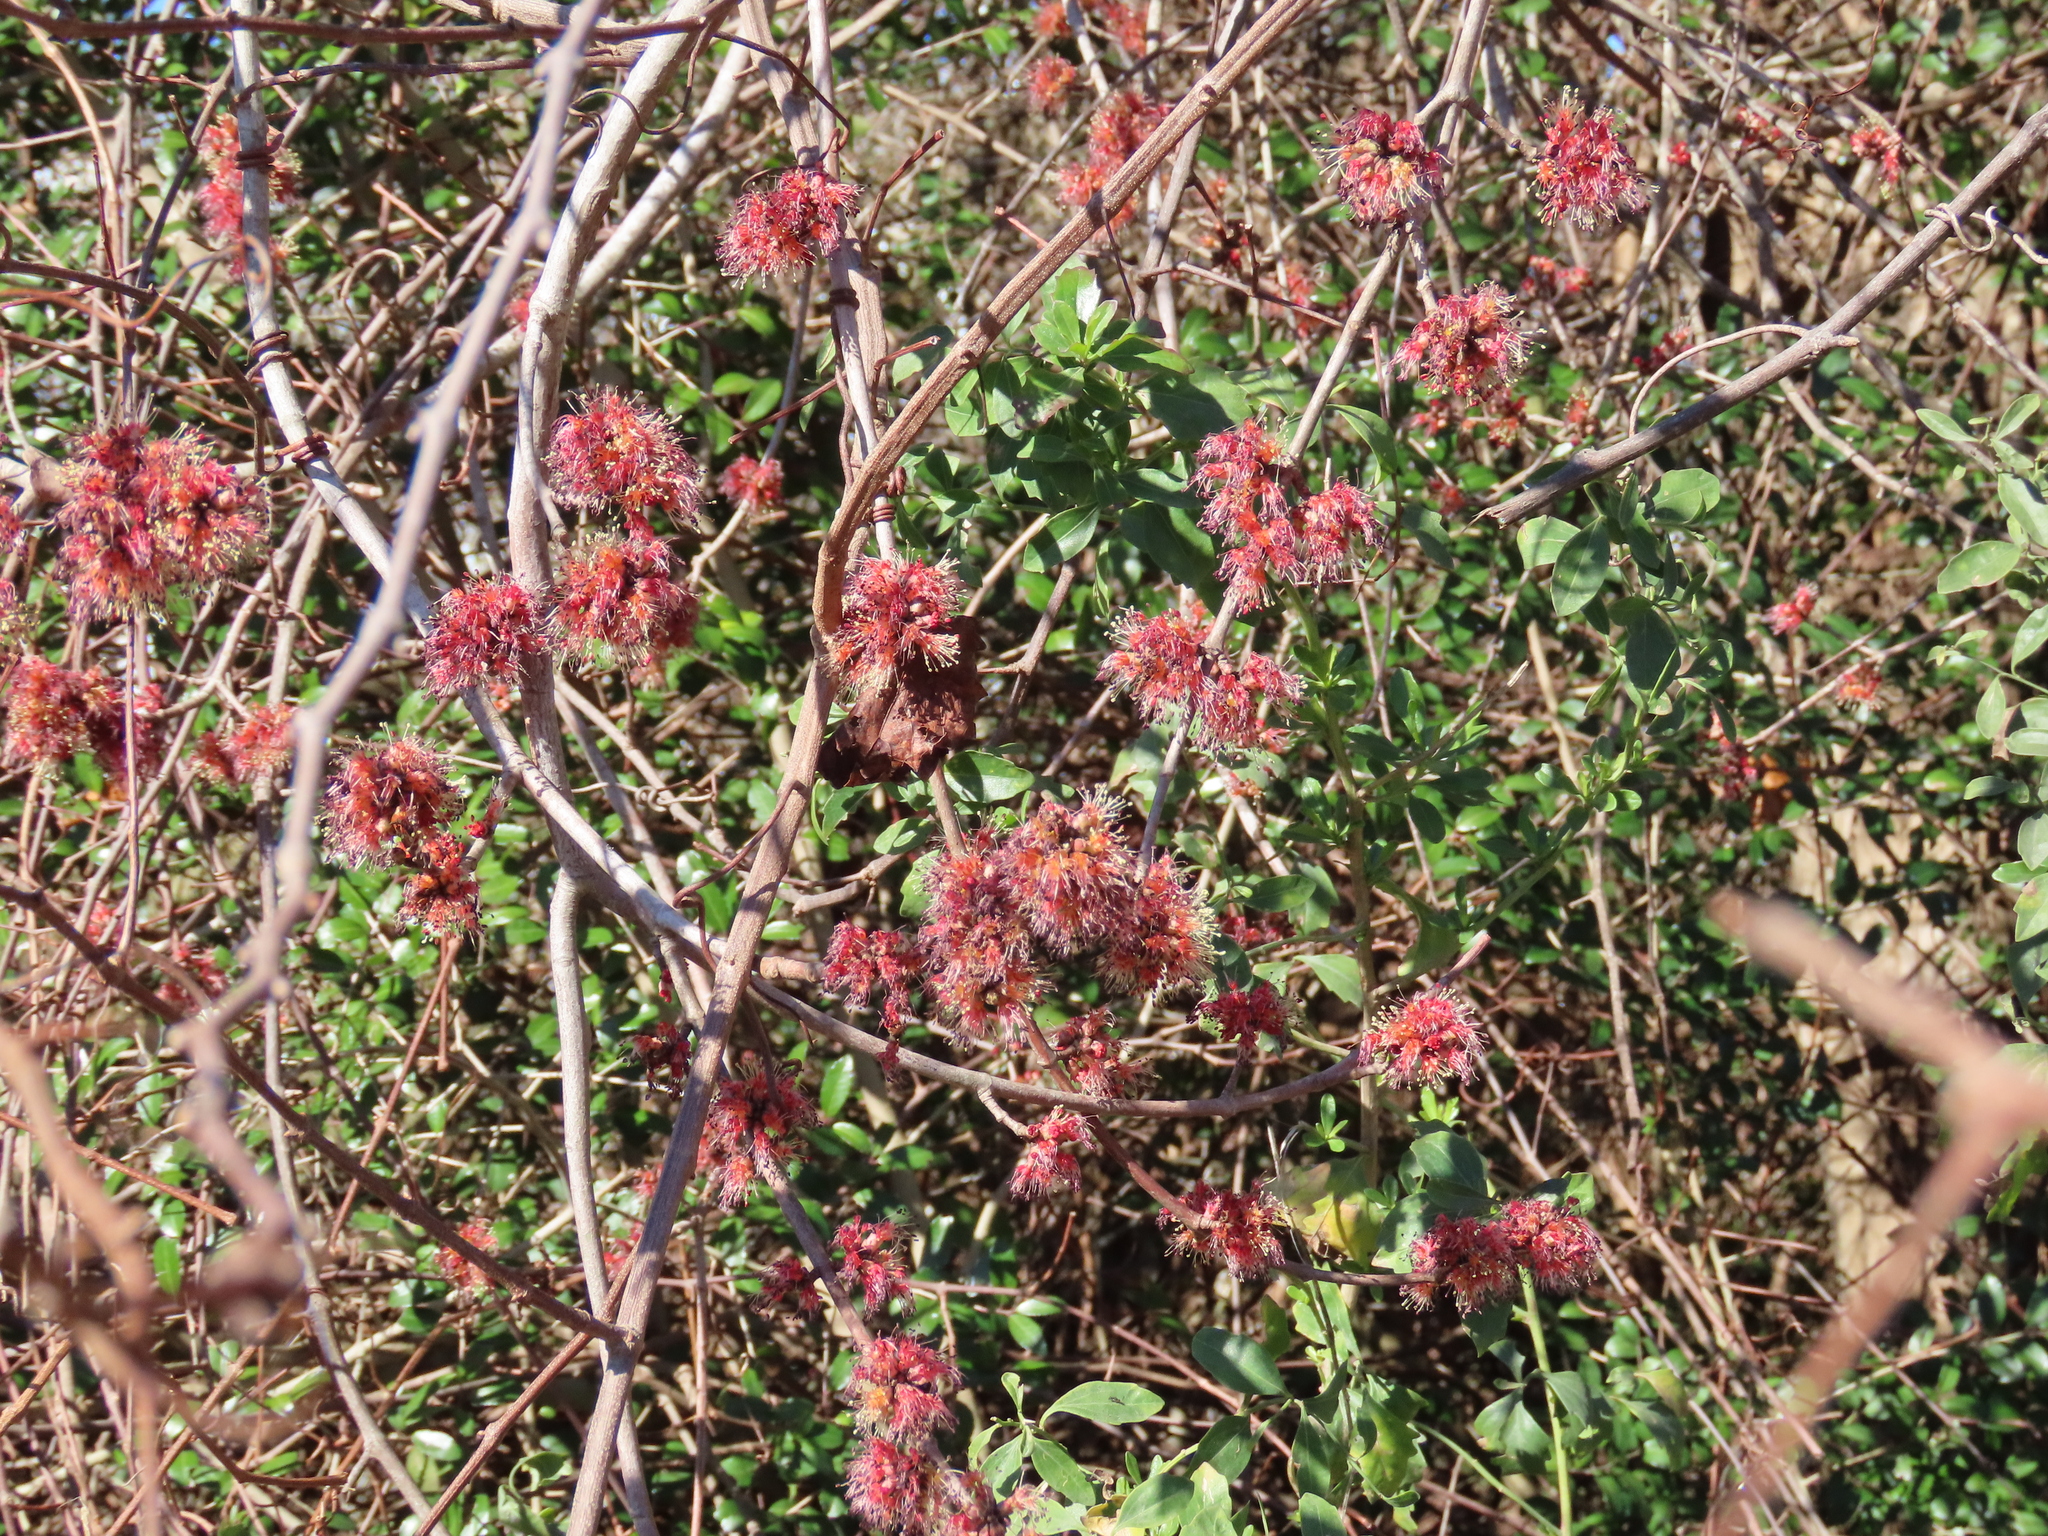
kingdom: Plantae
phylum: Tracheophyta
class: Magnoliopsida
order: Sapindales
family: Sapindaceae
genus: Acer
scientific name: Acer rubrum
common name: Red maple
